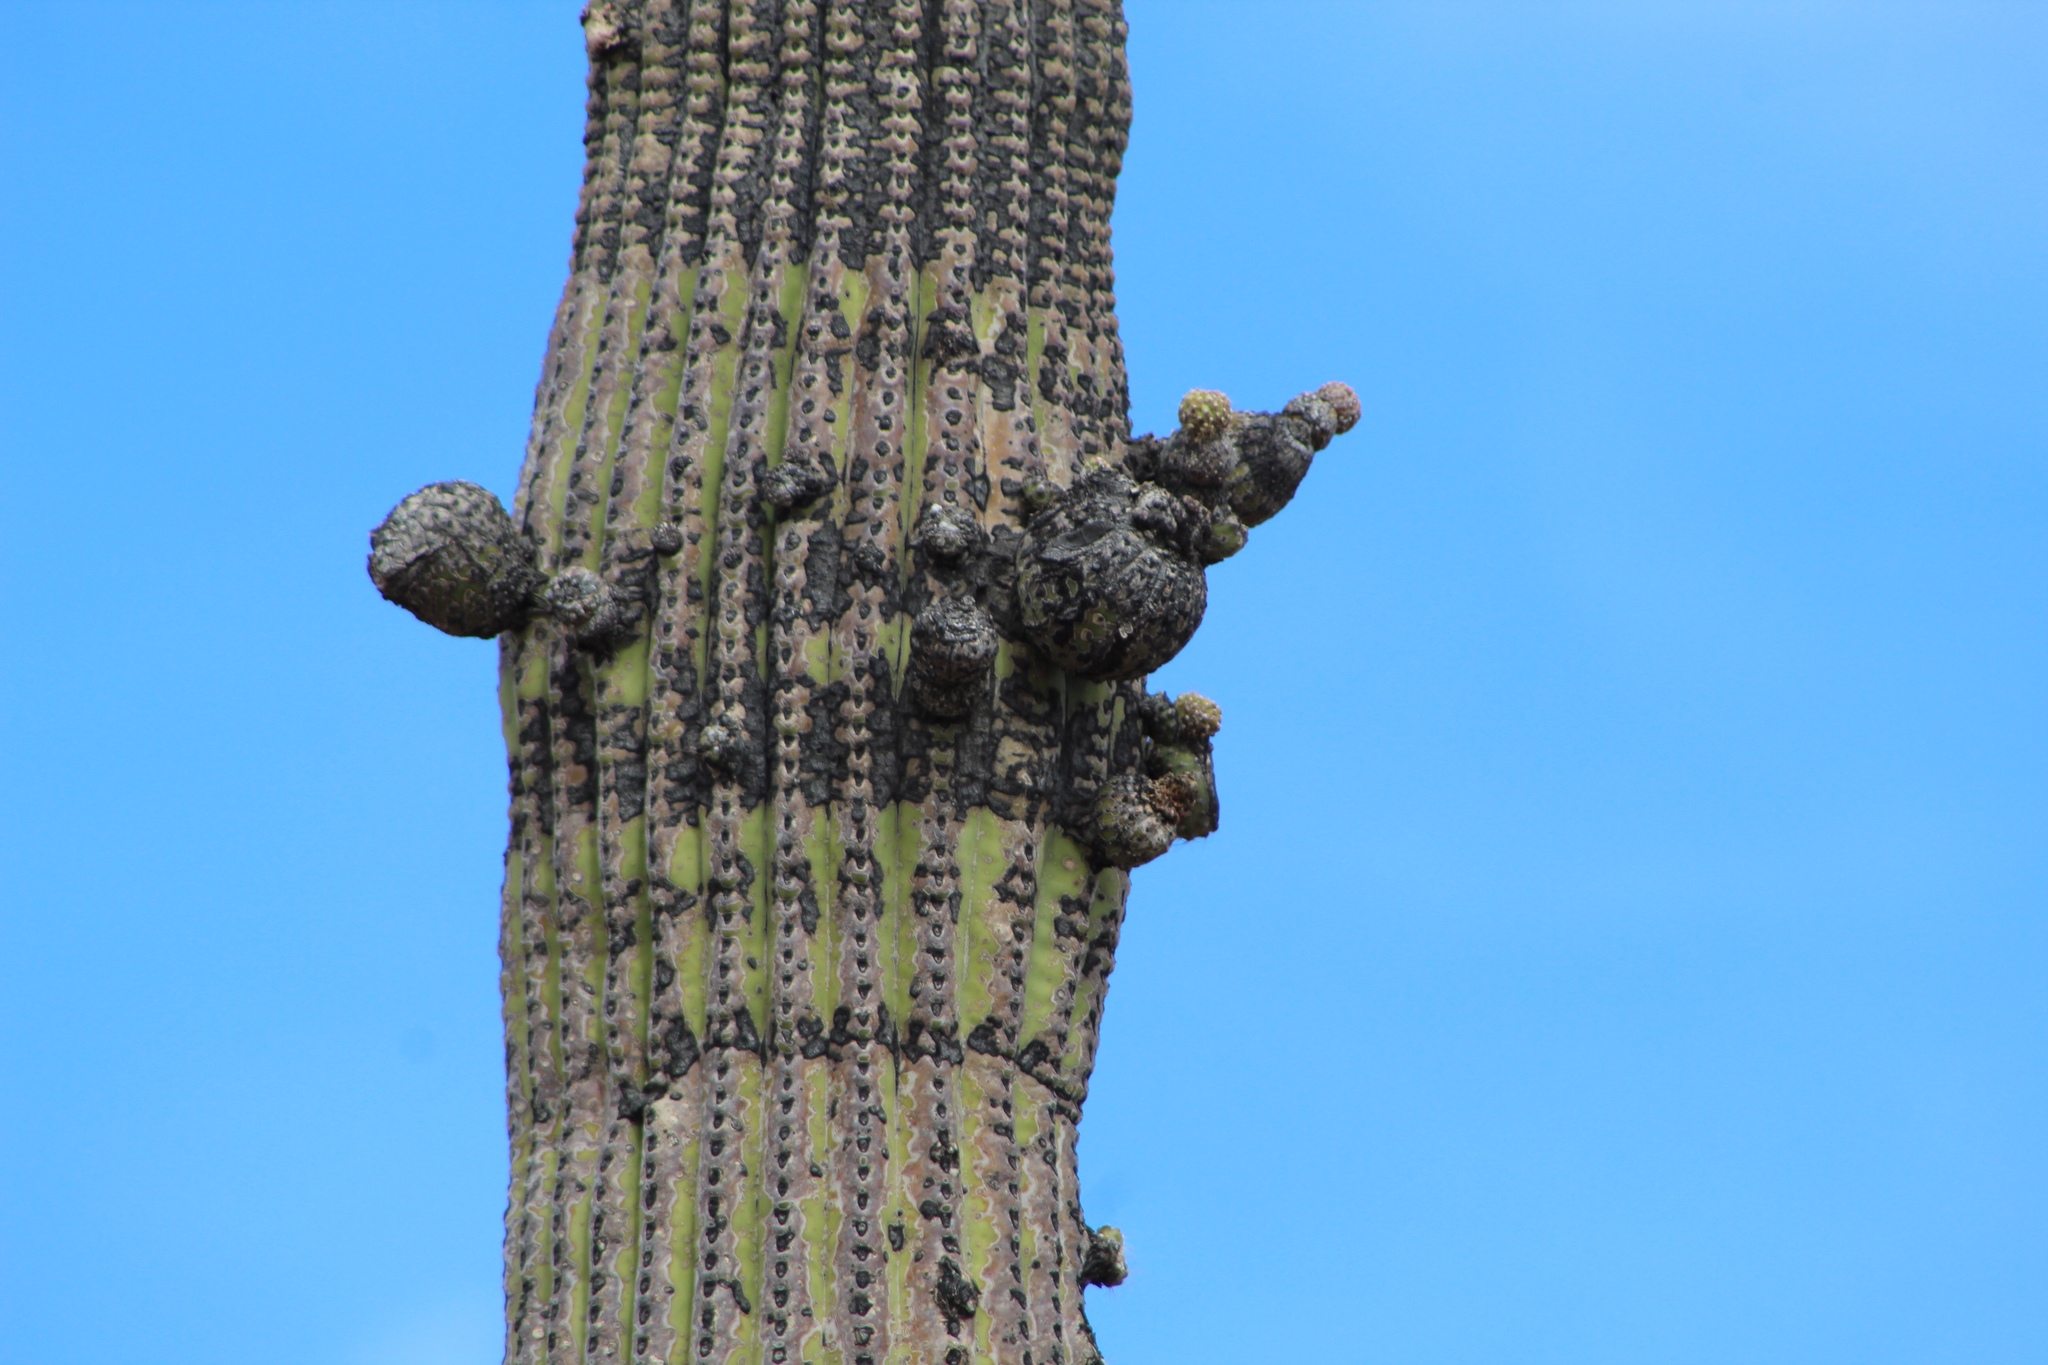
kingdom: Plantae
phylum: Tracheophyta
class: Magnoliopsida
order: Caryophyllales
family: Cactaceae
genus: Carnegiea
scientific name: Carnegiea gigantea
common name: Saguaro
